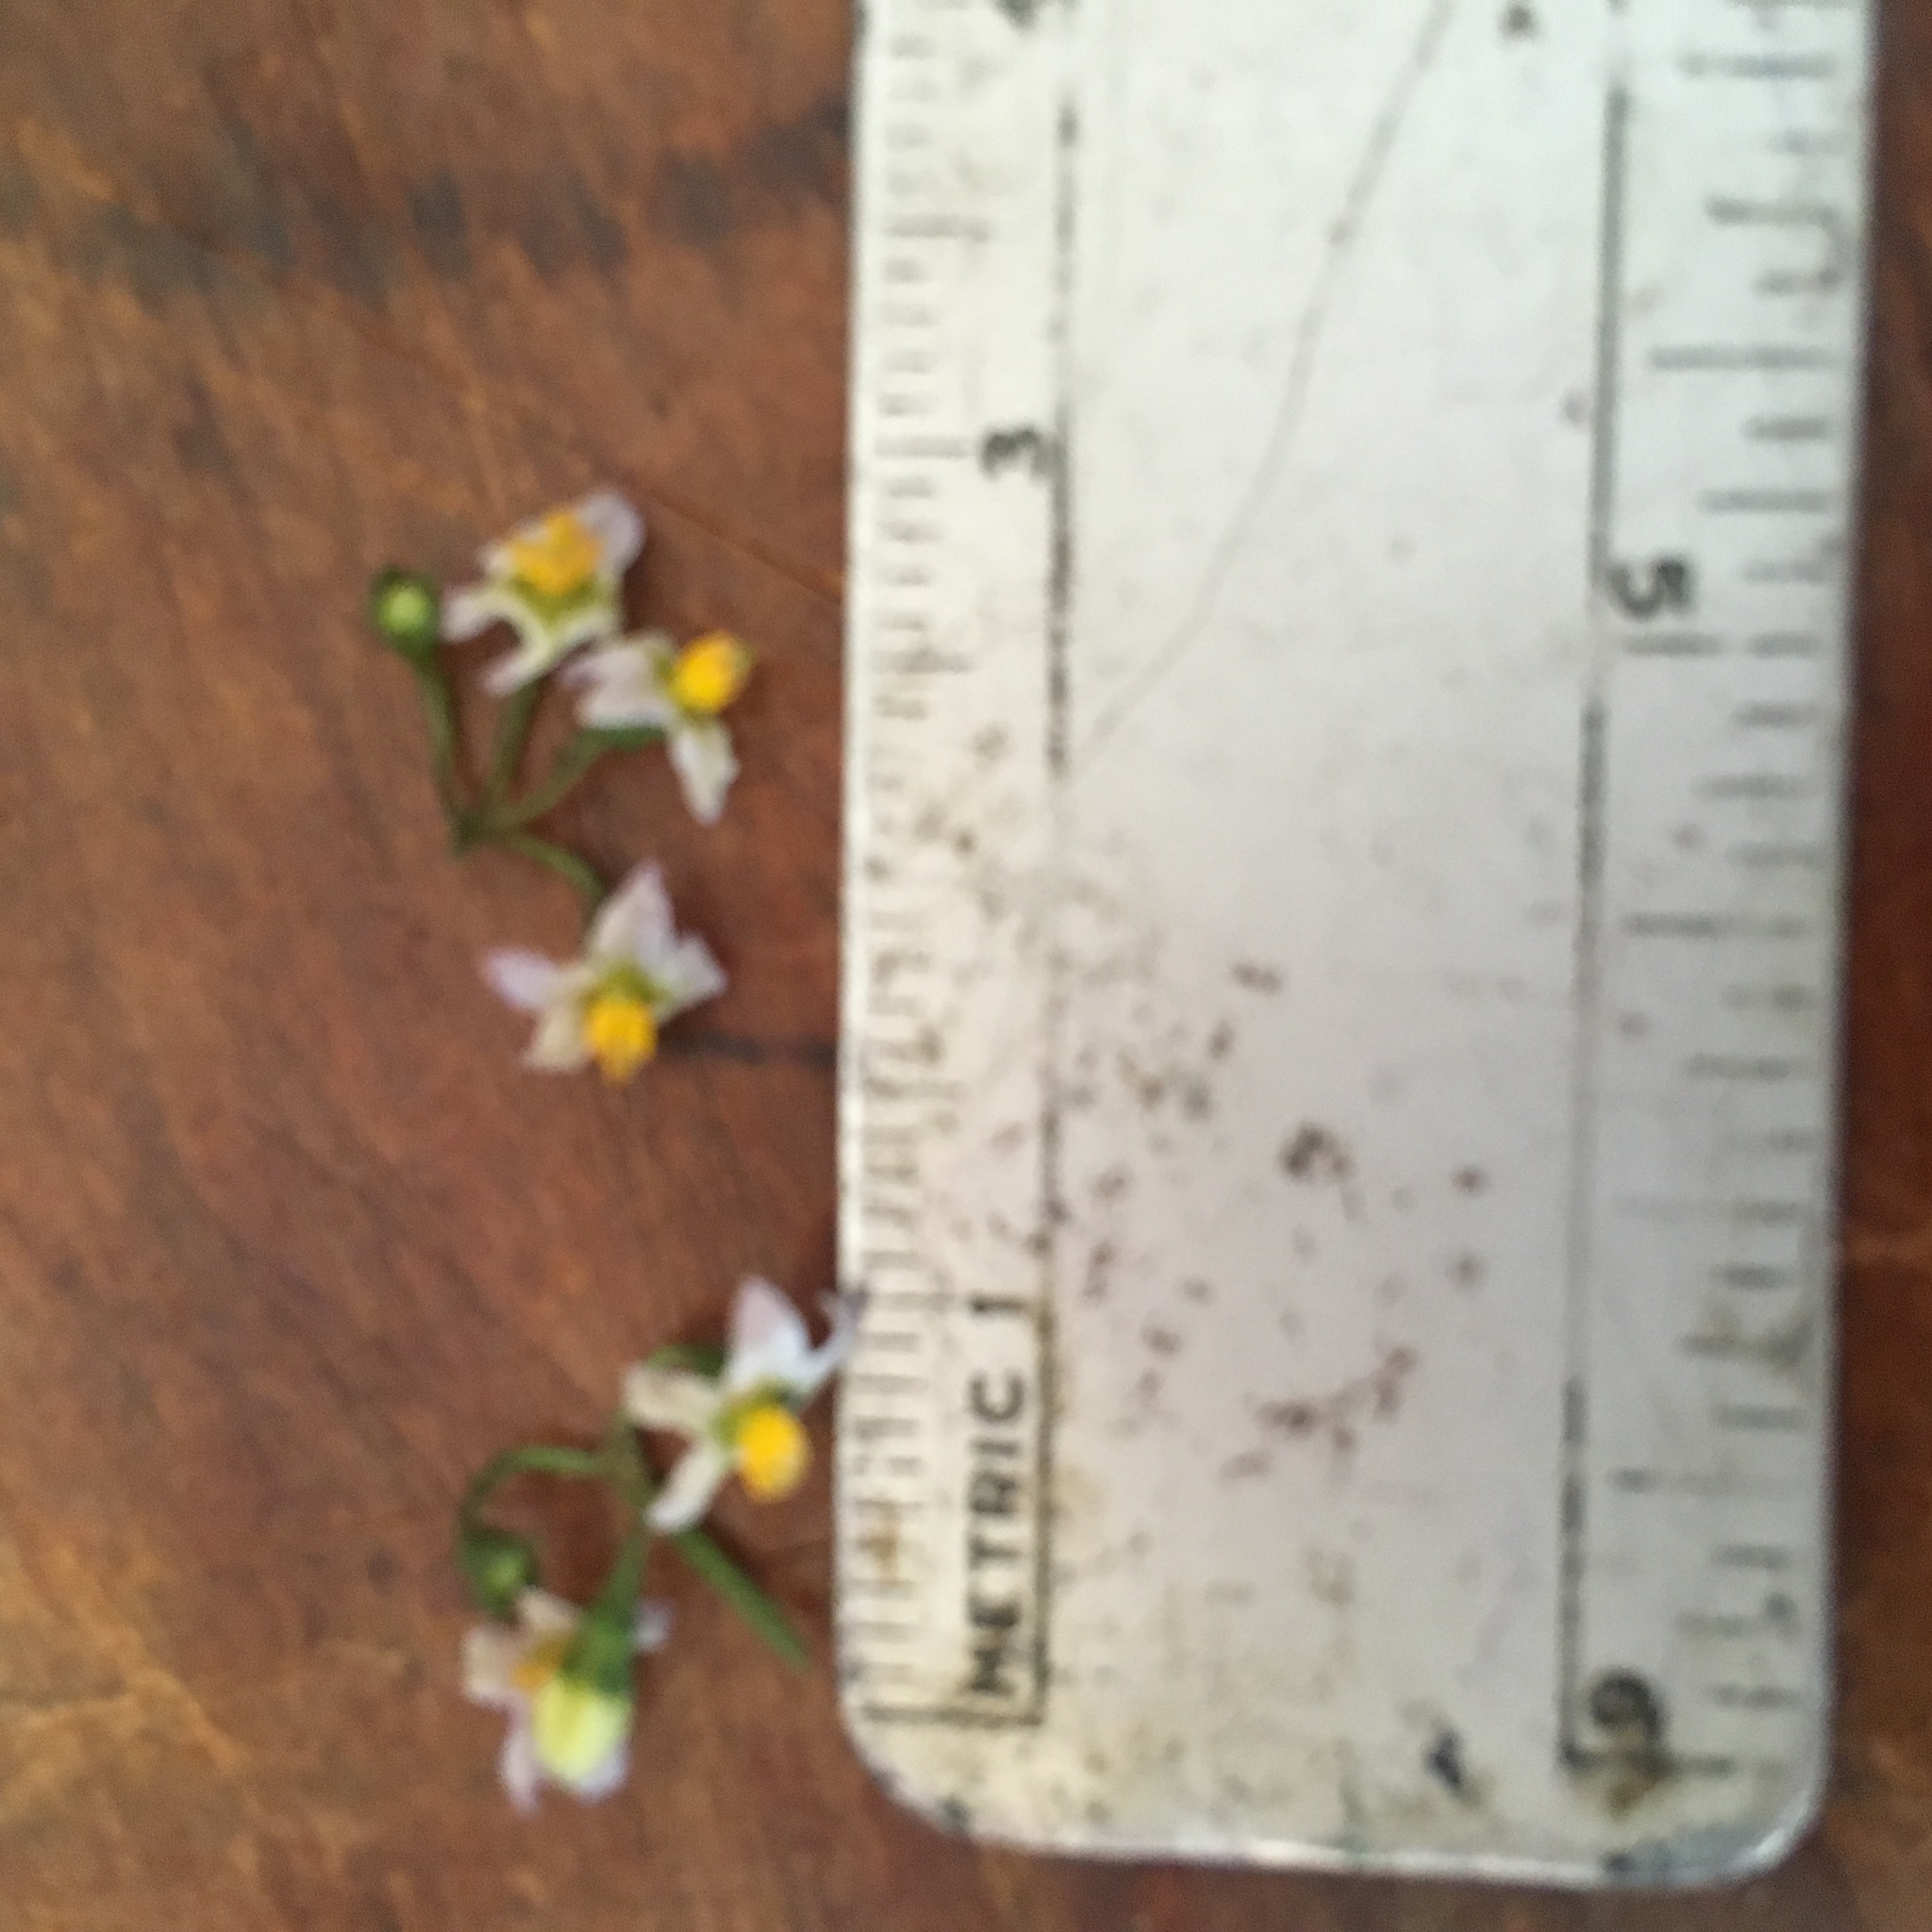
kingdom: Plantae
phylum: Tracheophyta
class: Magnoliopsida
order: Solanales
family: Solanaceae
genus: Solanum
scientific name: Solanum opacum
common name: Green-berry nightshade
